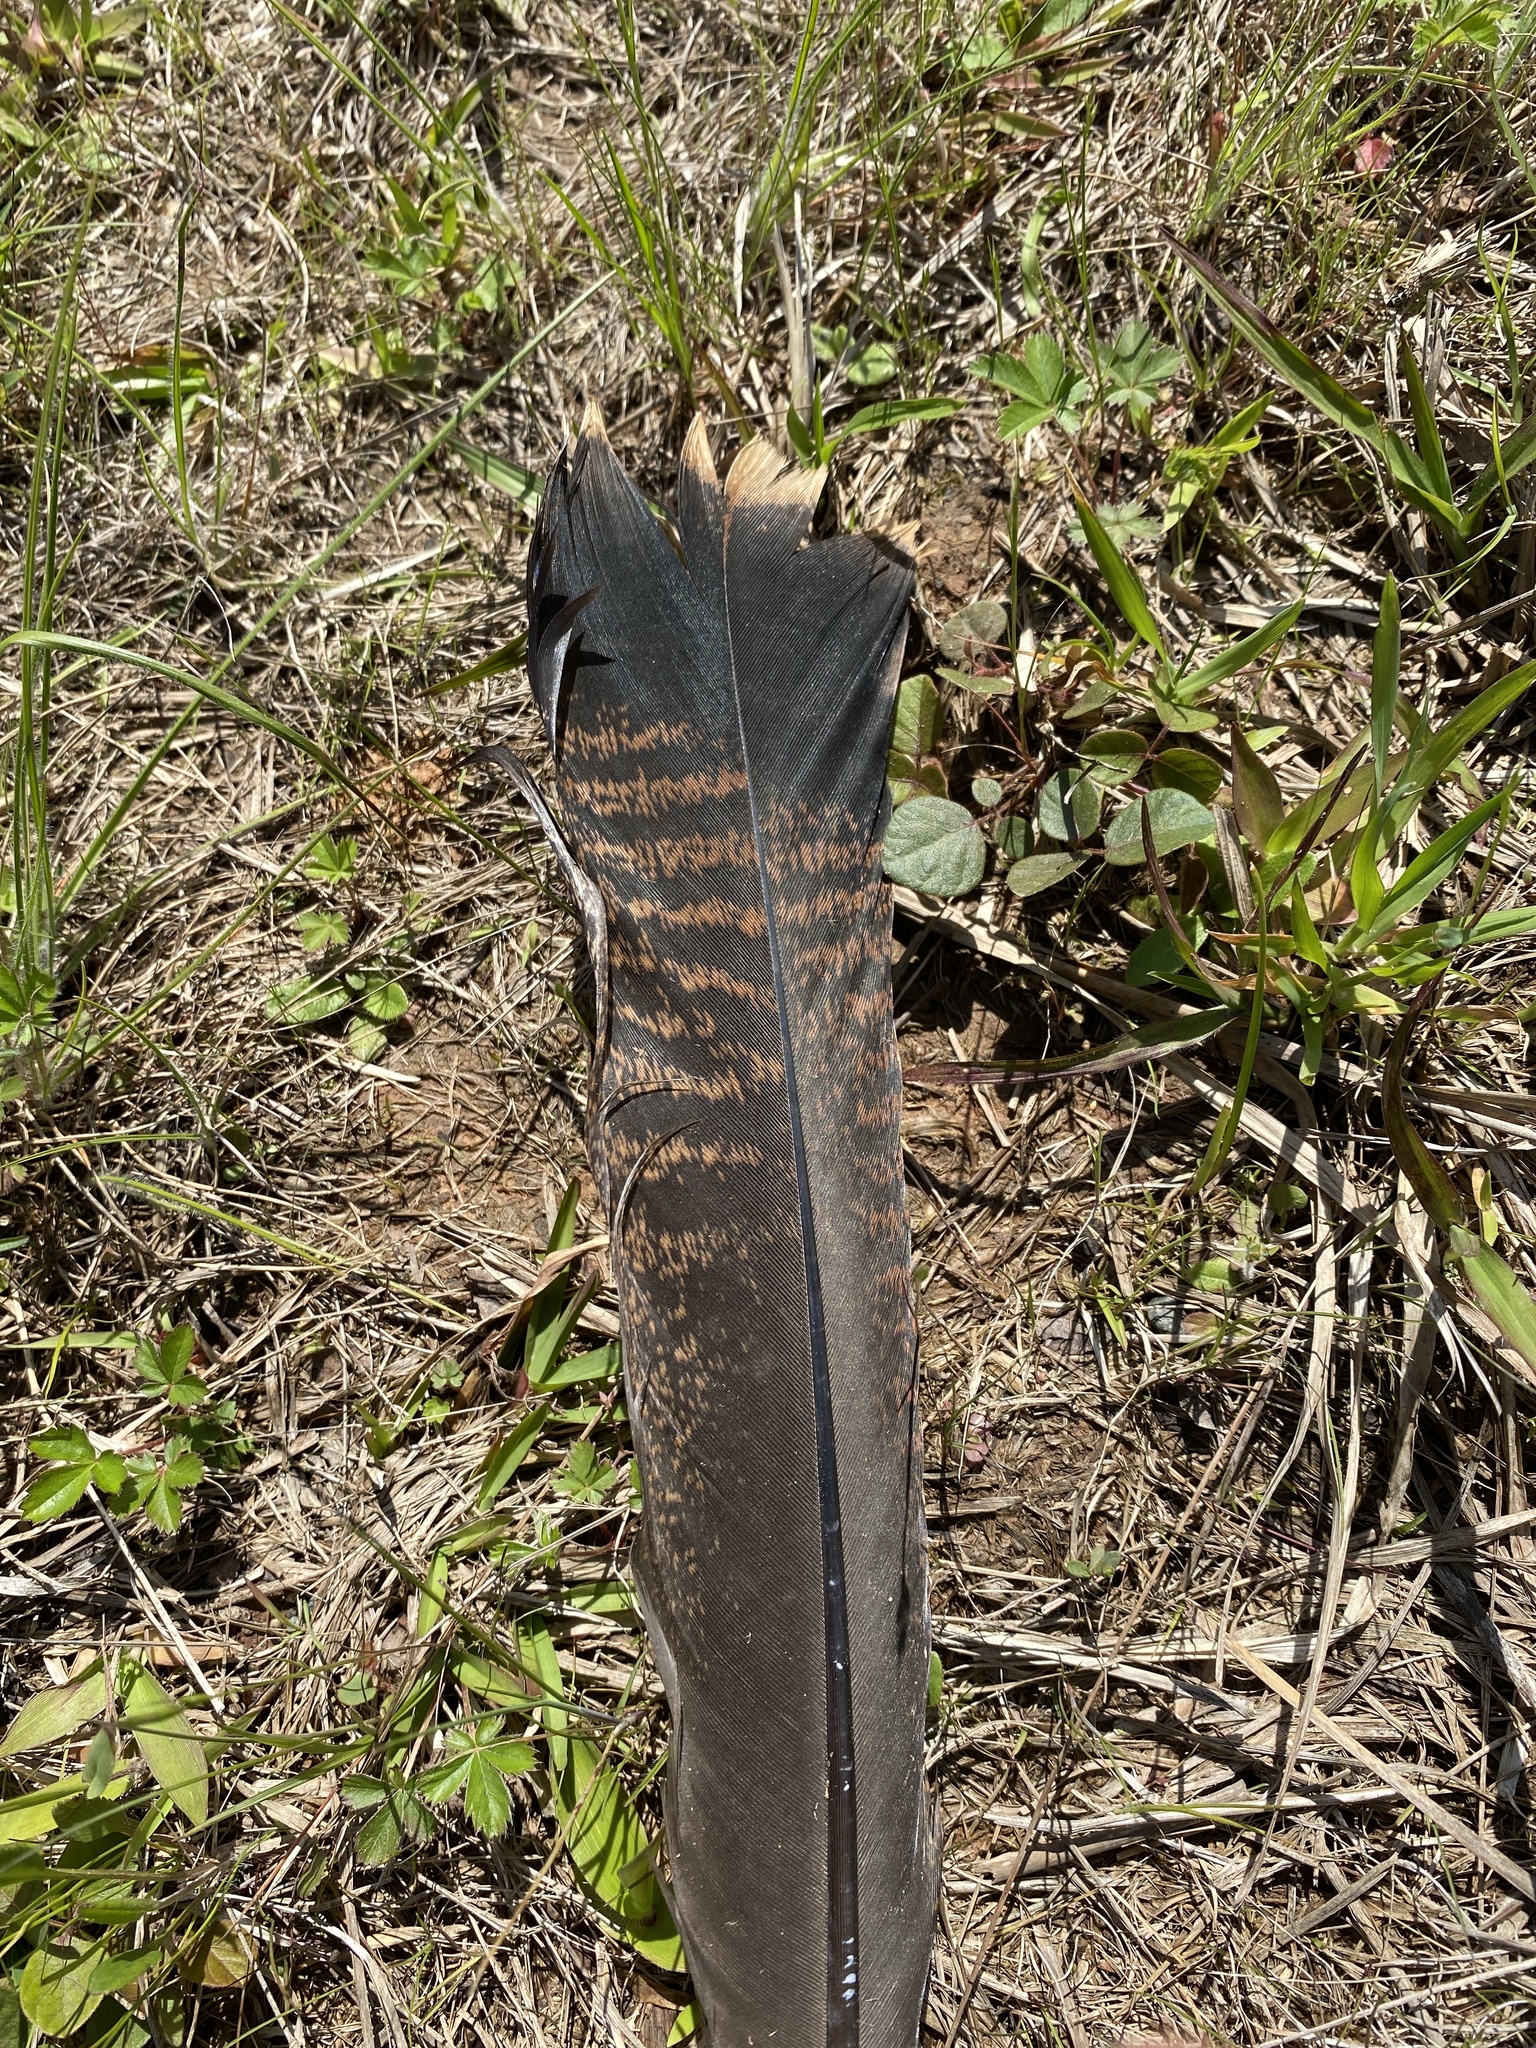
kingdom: Animalia
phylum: Chordata
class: Aves
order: Galliformes
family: Phasianidae
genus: Meleagris
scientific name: Meleagris gallopavo
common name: Wild turkey
